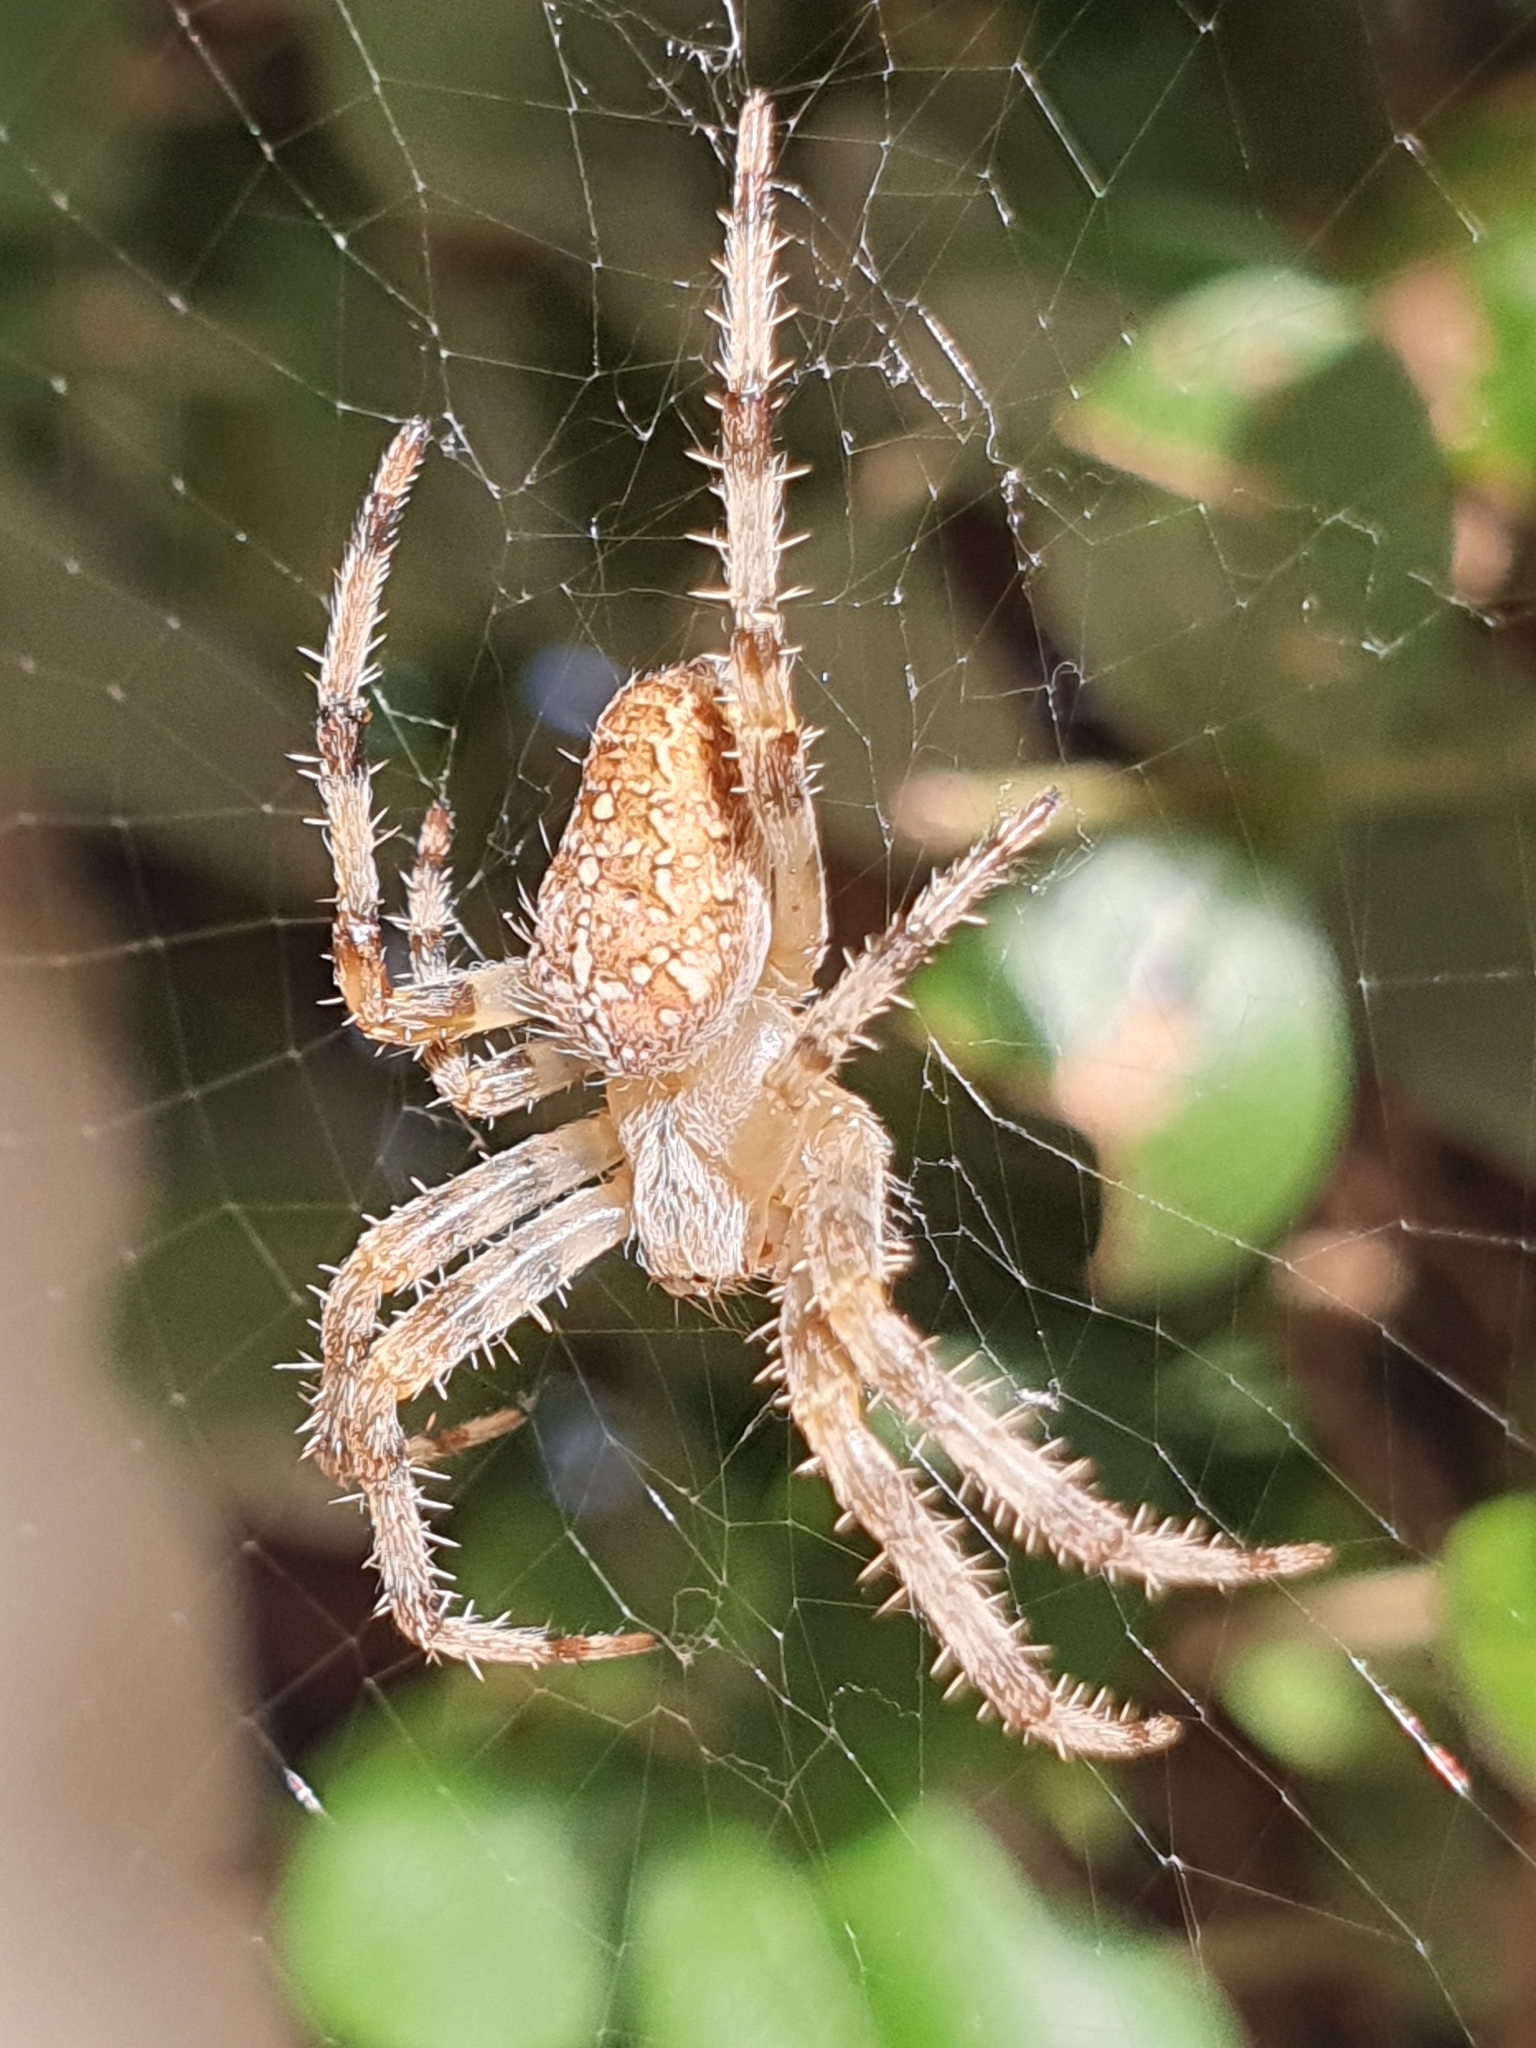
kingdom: Animalia
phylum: Arthropoda
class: Arachnida
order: Araneae
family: Araneidae
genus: Araneus
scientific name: Araneus diadematus
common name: Cross orbweaver
